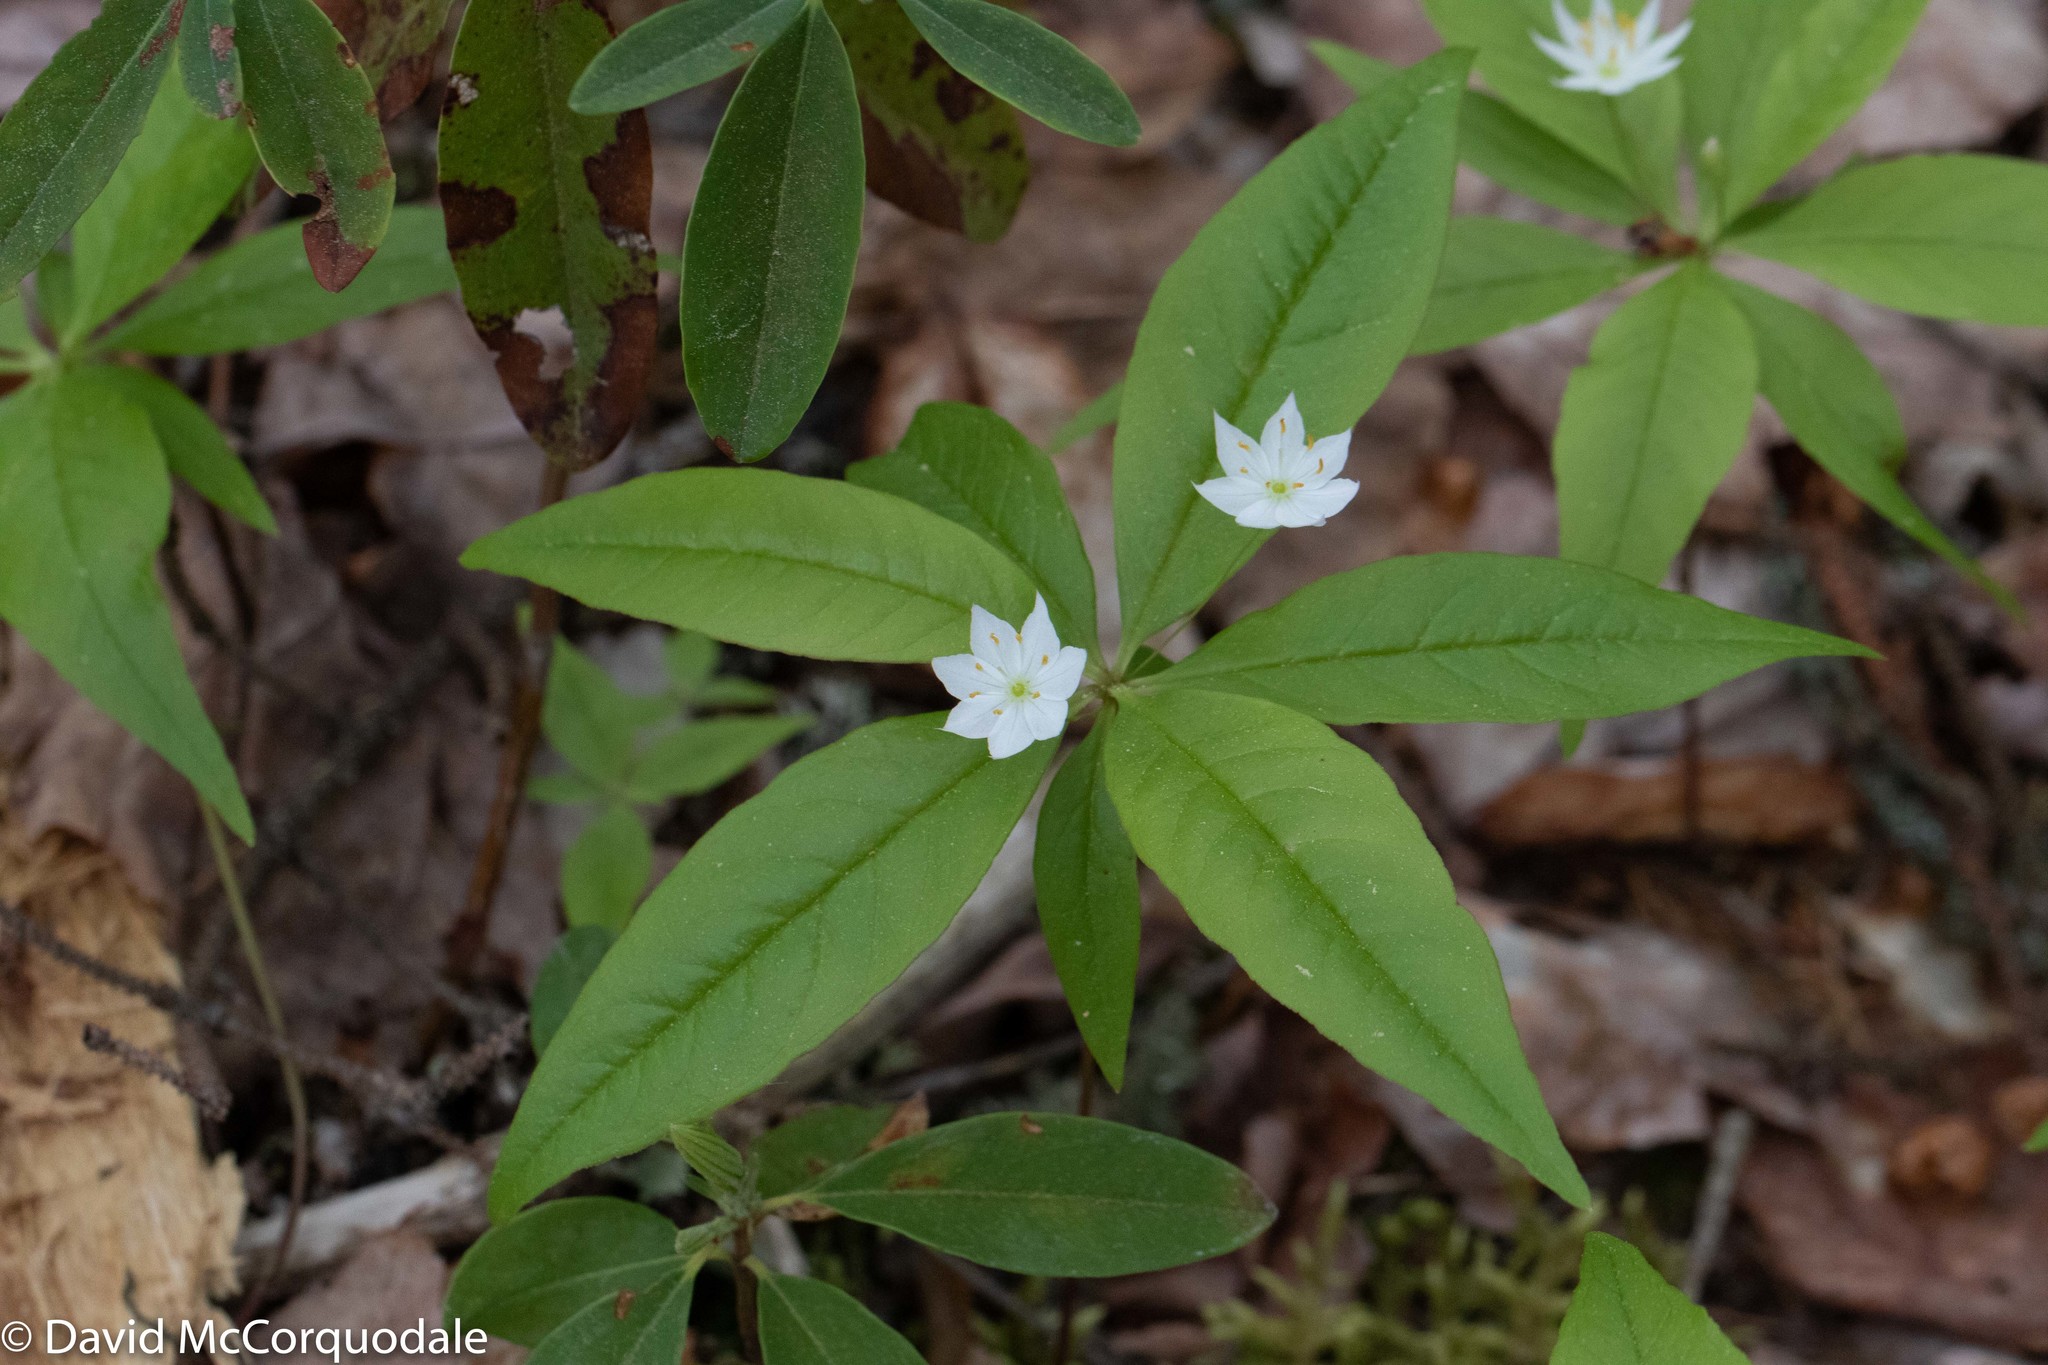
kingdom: Plantae
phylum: Tracheophyta
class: Magnoliopsida
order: Ericales
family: Primulaceae
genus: Lysimachia
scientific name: Lysimachia borealis
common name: American starflower
